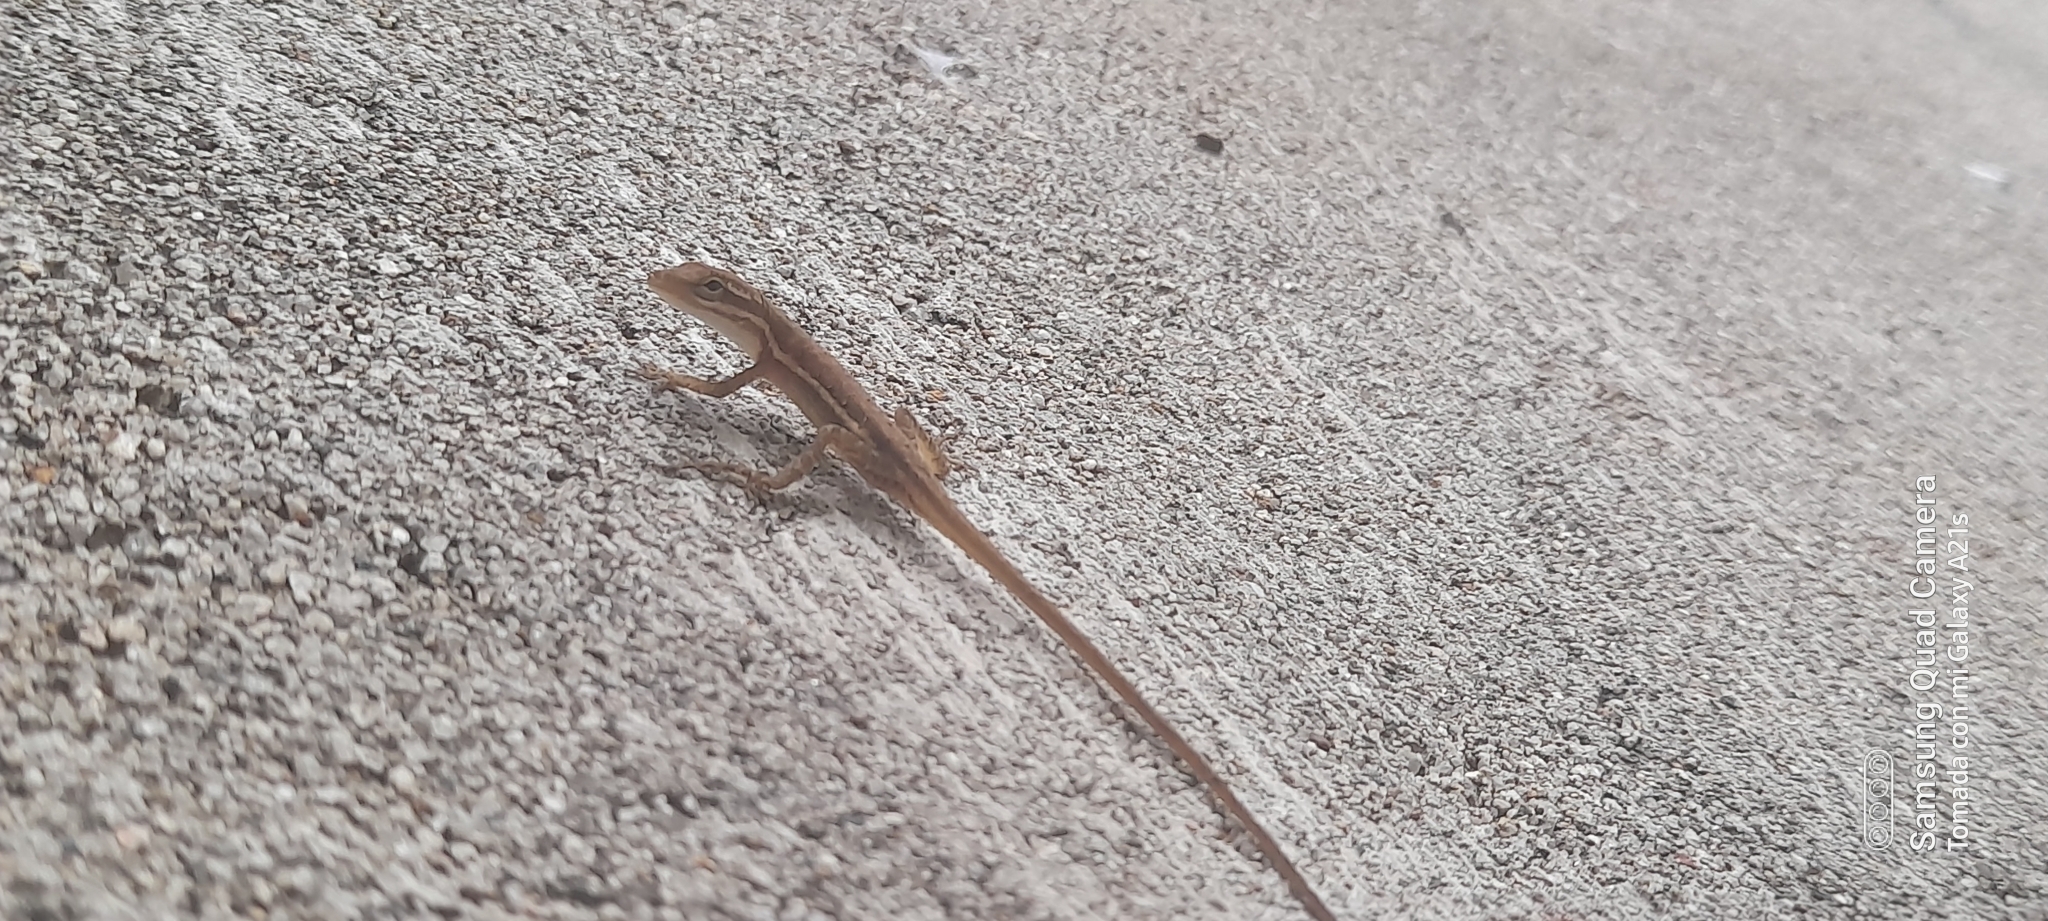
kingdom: Animalia
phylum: Chordata
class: Squamata
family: Dactyloidae
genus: Anolis
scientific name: Anolis auratus
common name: Grass anole
